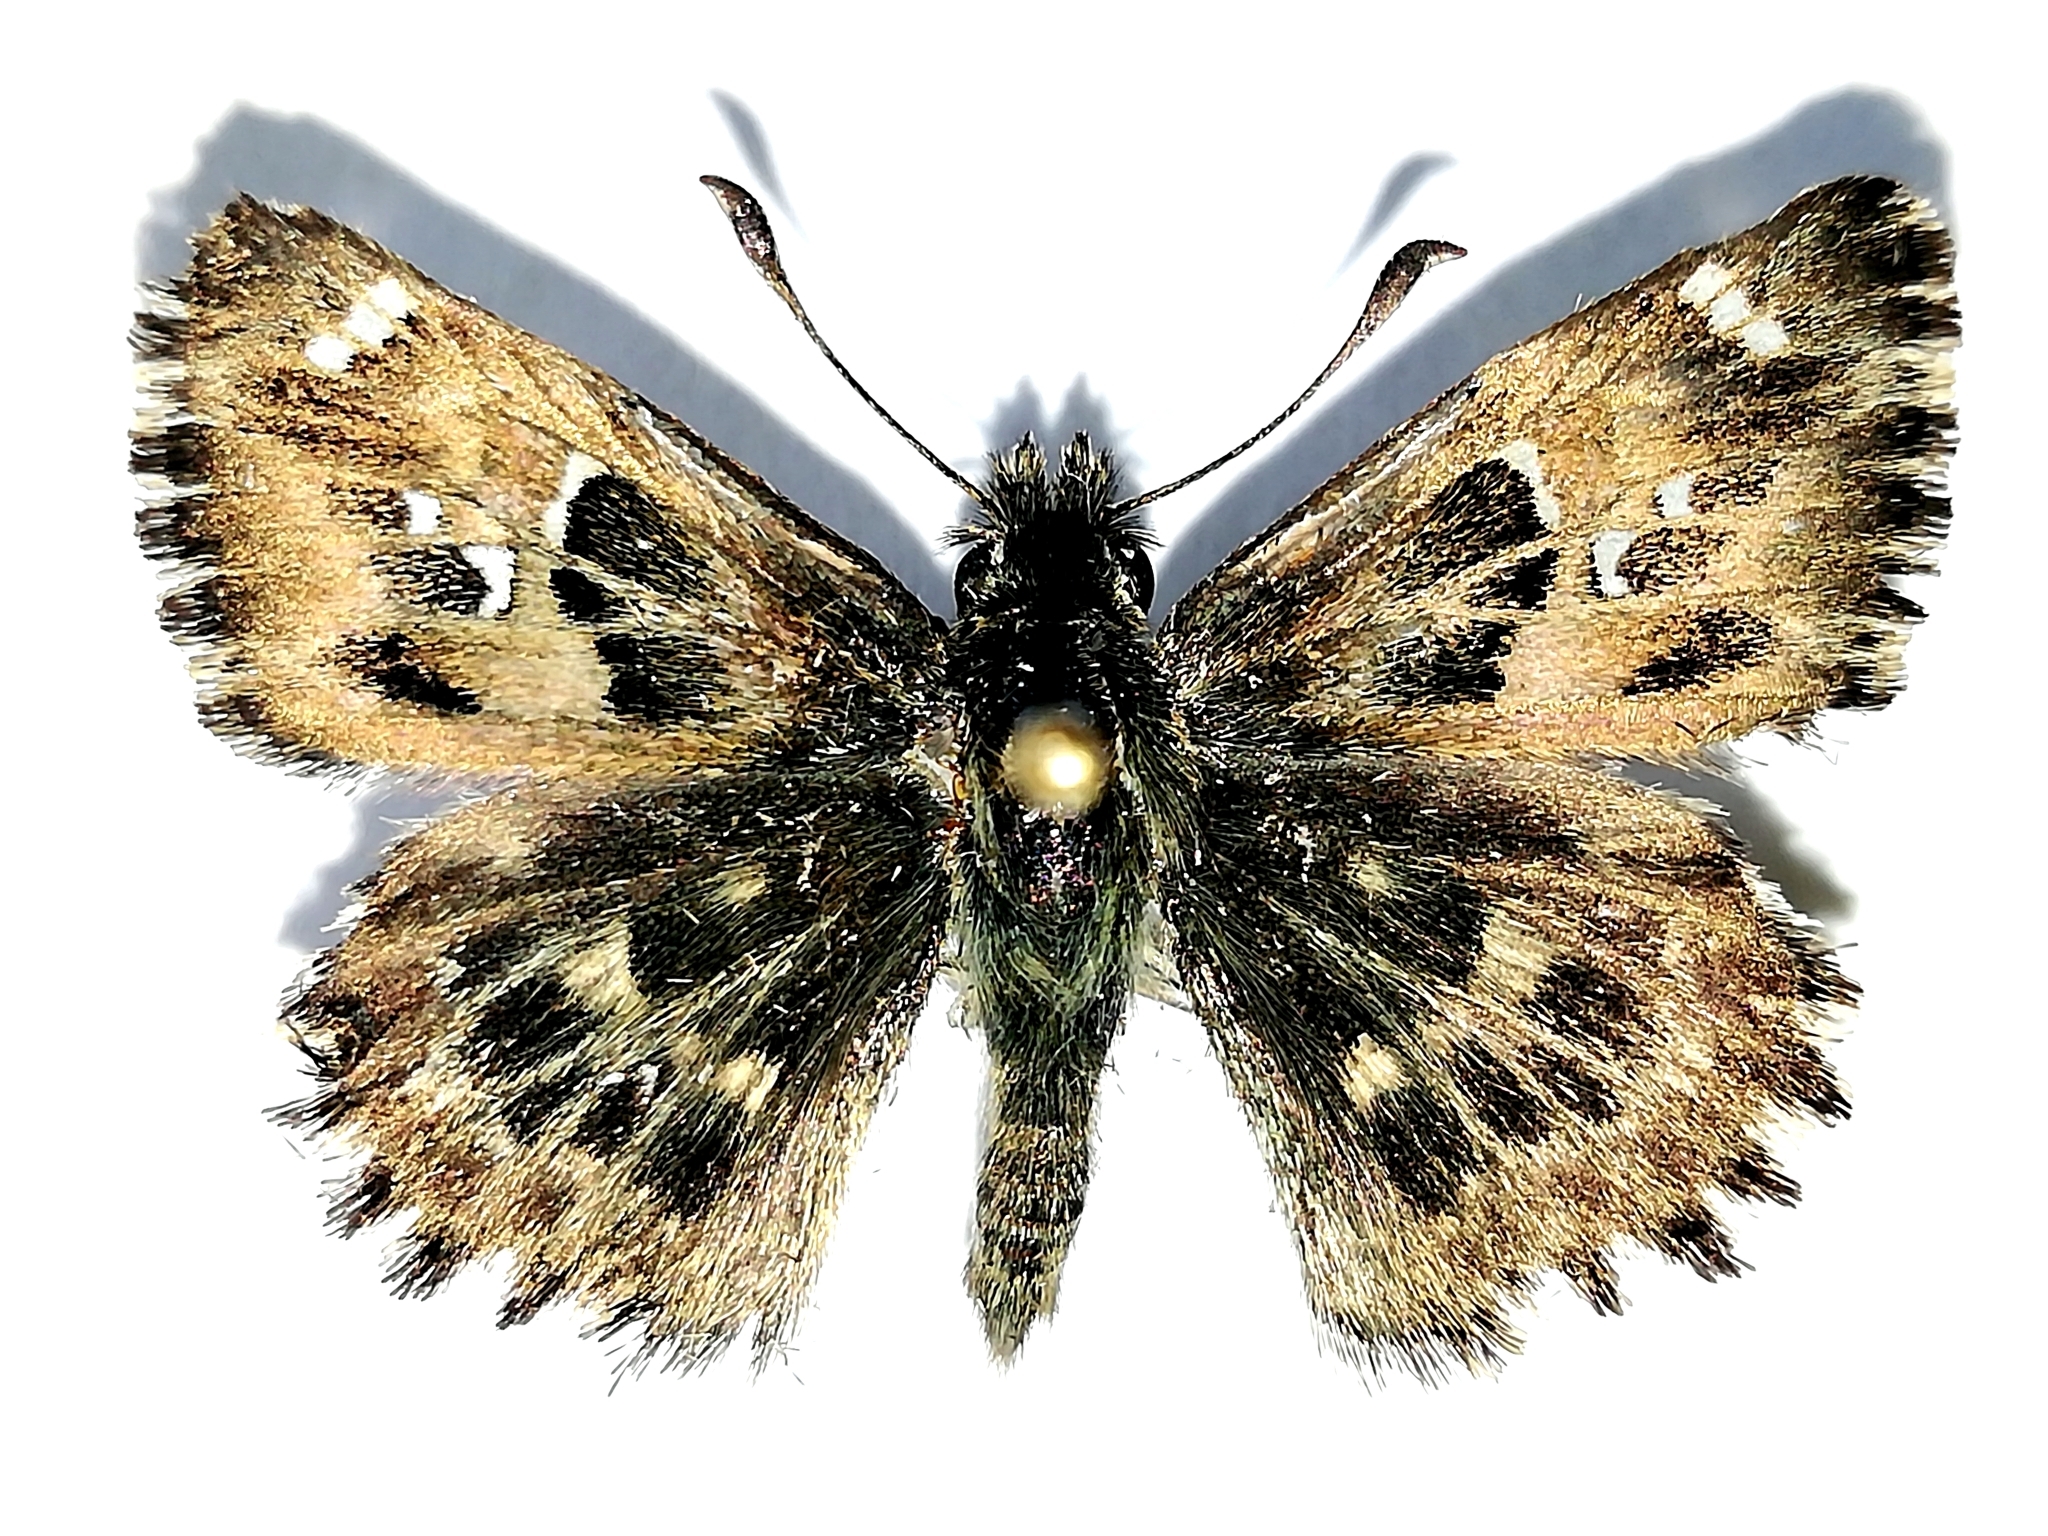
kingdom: Animalia
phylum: Arthropoda
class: Insecta
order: Lepidoptera
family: Hesperiidae
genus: Carcharodus
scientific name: Carcharodus alceae
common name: Mallow skipper
